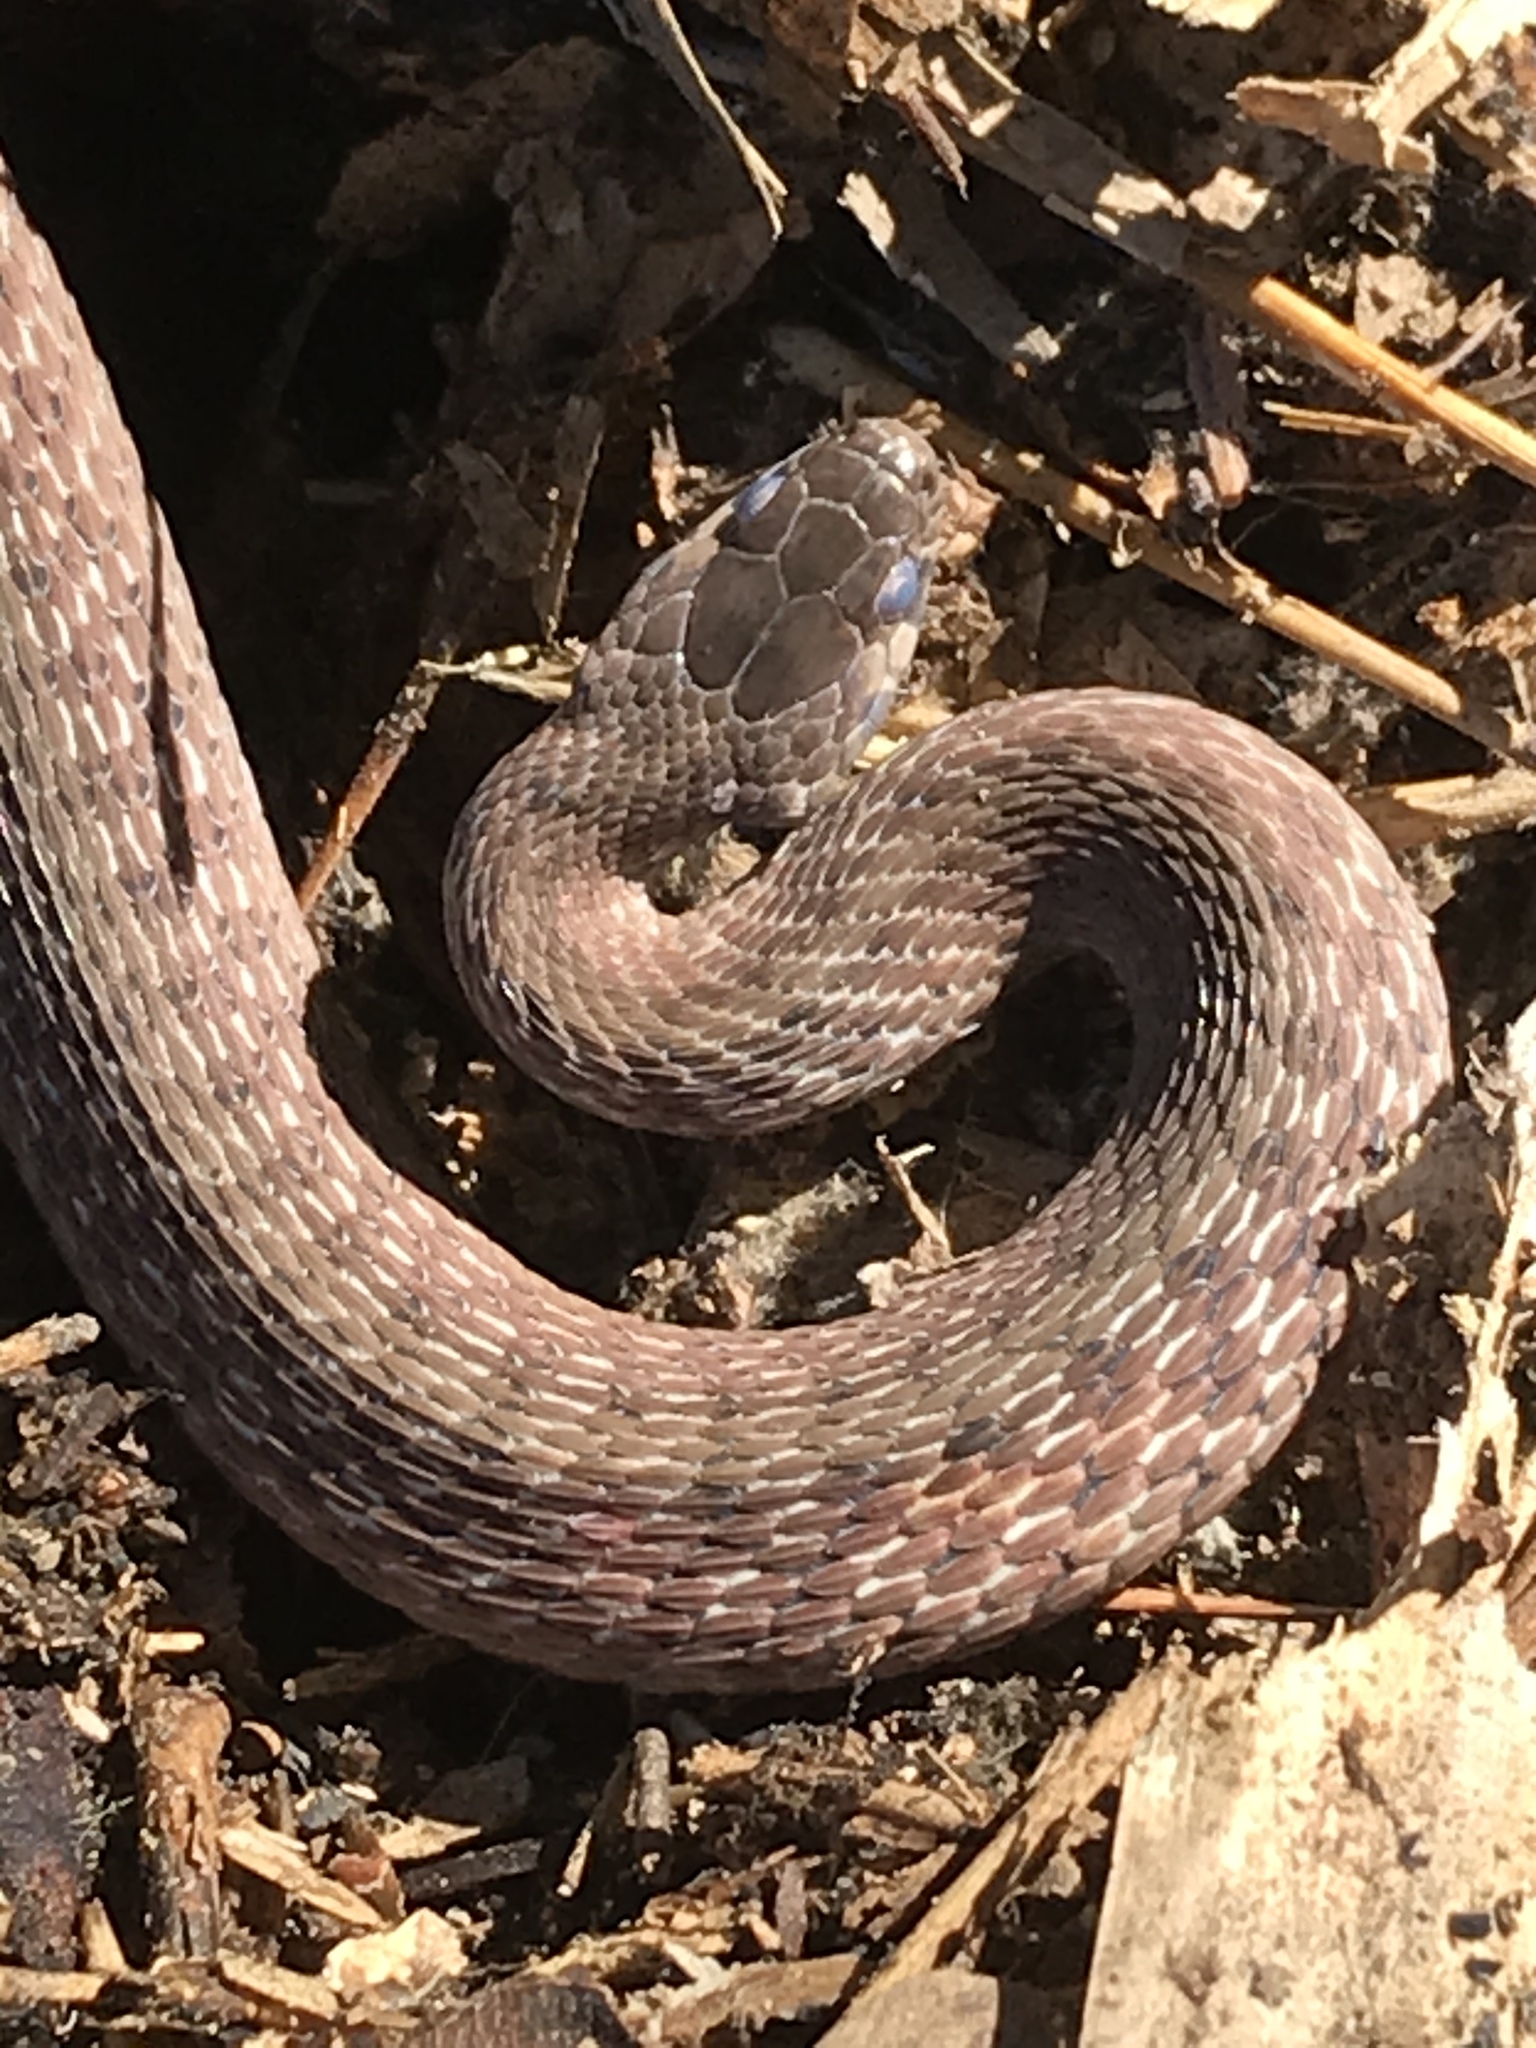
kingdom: Animalia
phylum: Chordata
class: Squamata
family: Colubridae
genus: Storeria
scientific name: Storeria dekayi
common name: (dekay’s) brown snake
